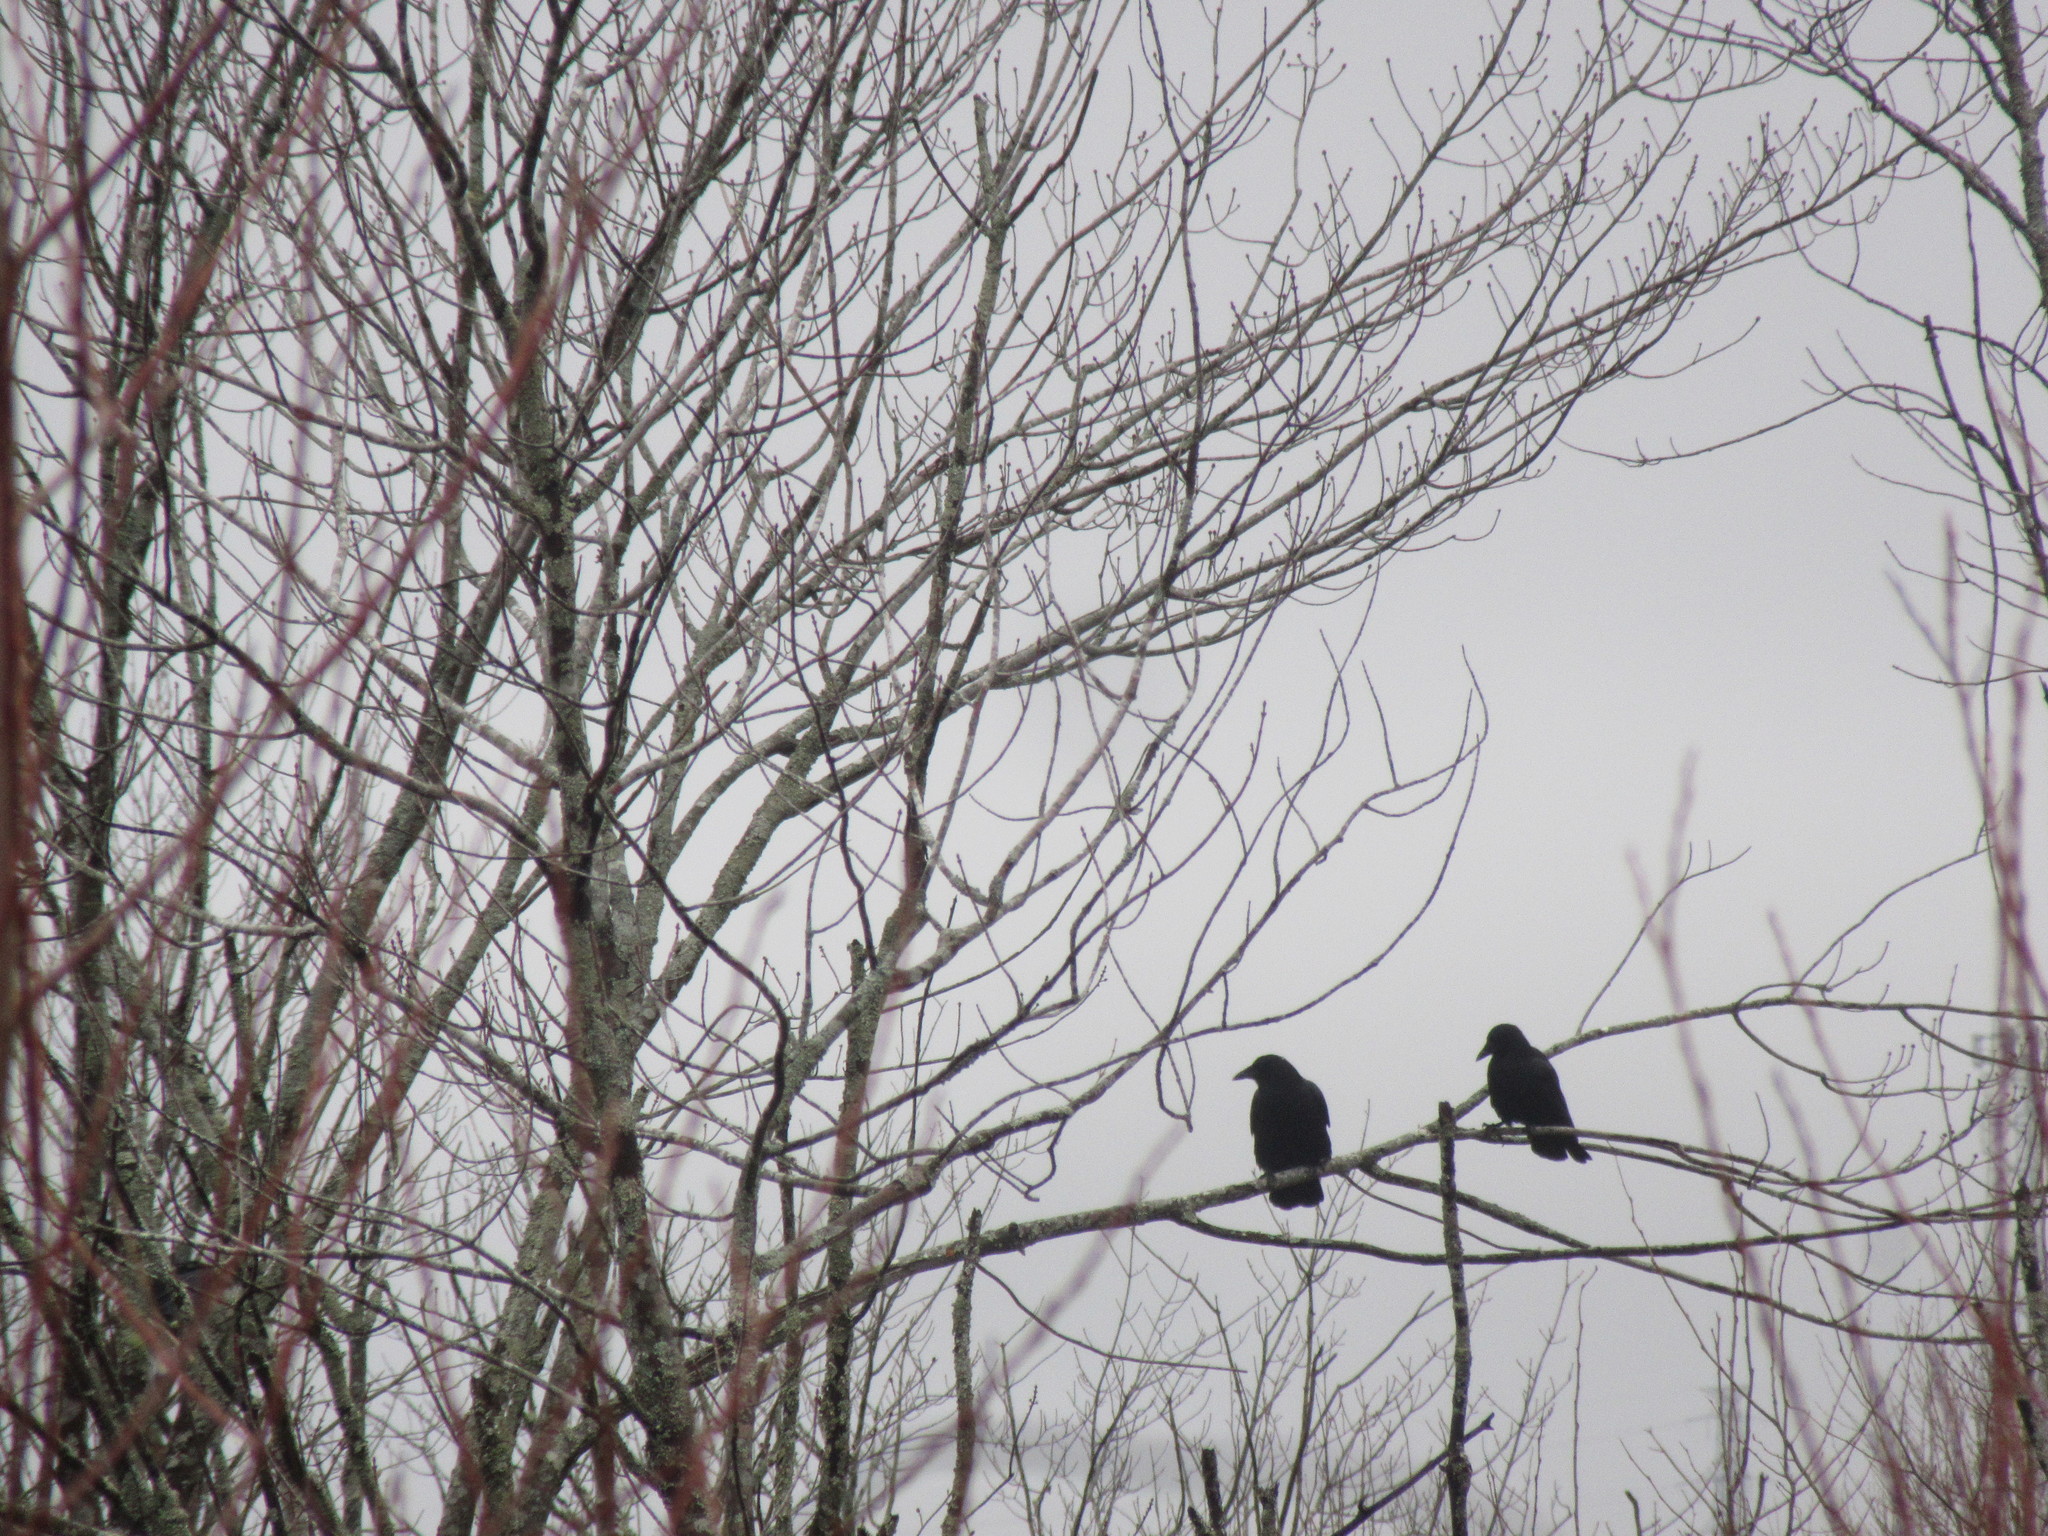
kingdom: Animalia
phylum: Chordata
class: Aves
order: Passeriformes
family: Corvidae
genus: Corvus
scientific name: Corvus brachyrhynchos
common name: American crow
